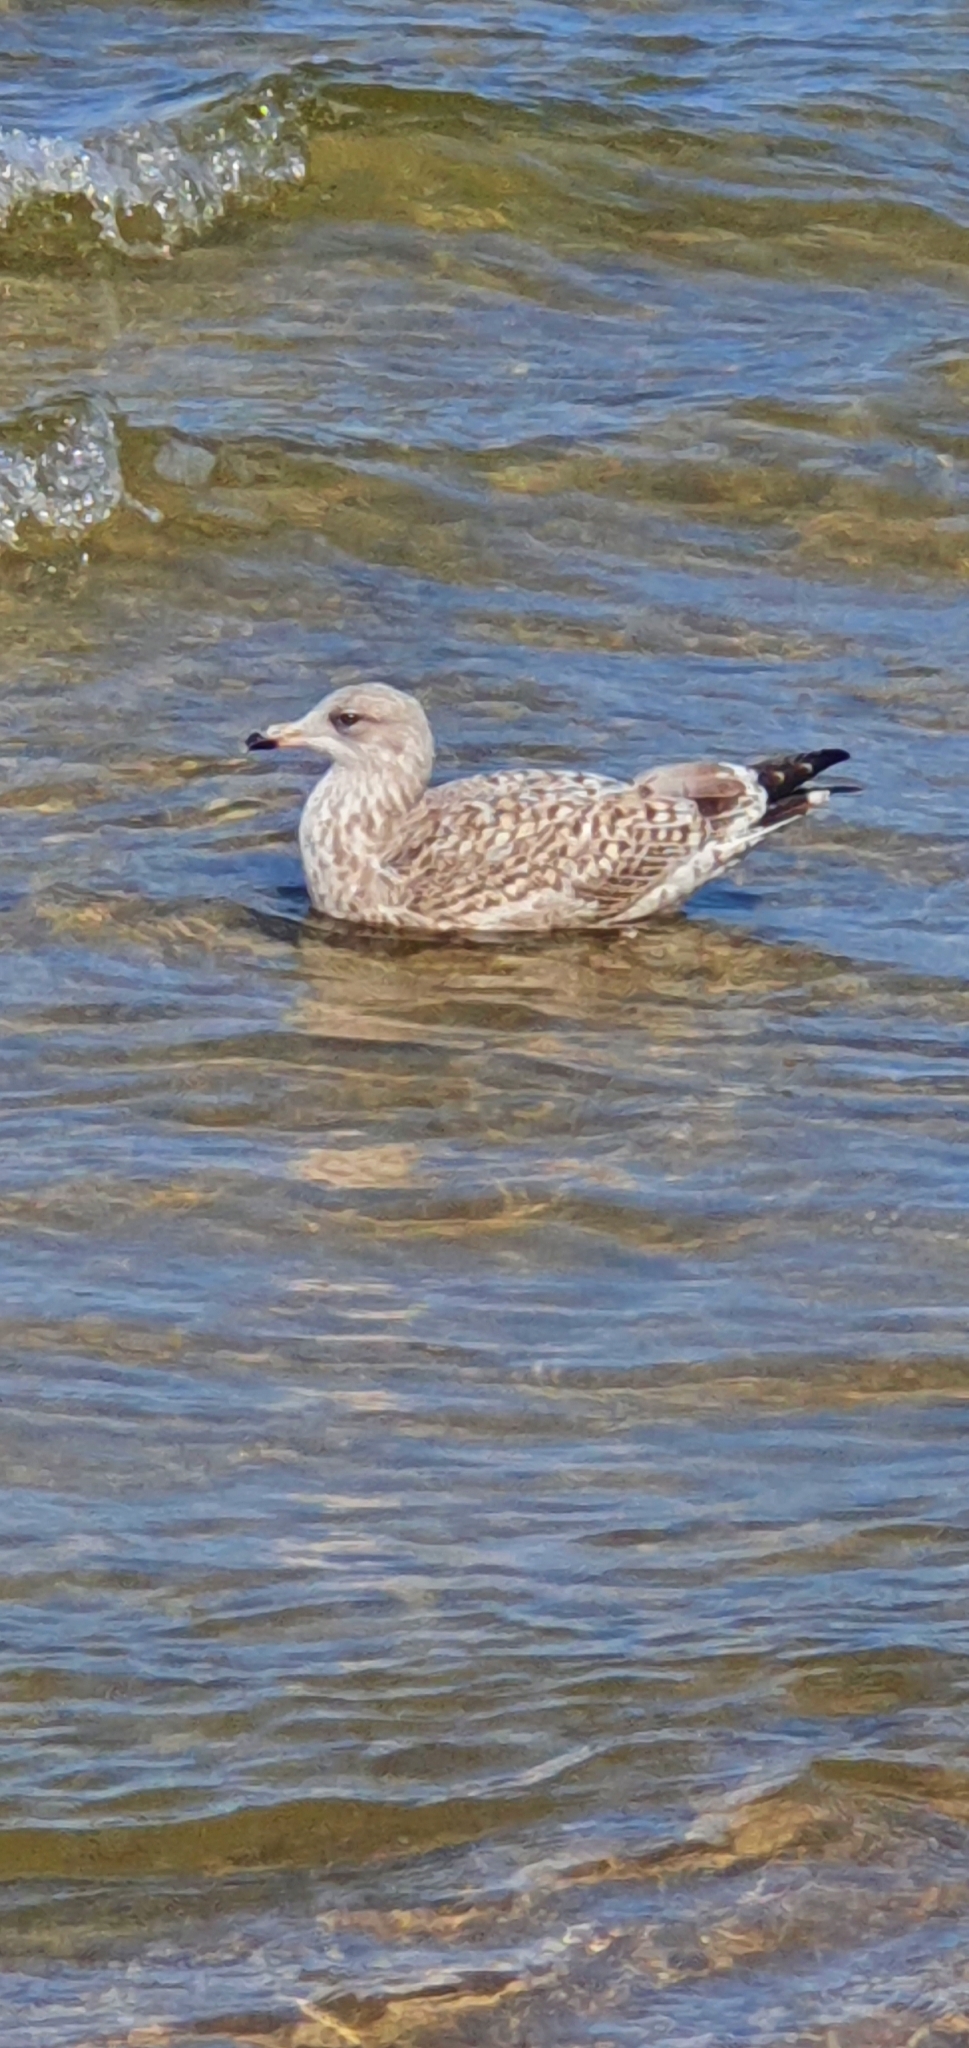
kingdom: Animalia
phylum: Chordata
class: Aves
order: Charadriiformes
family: Laridae
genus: Larus
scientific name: Larus argentatus
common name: Herring gull
